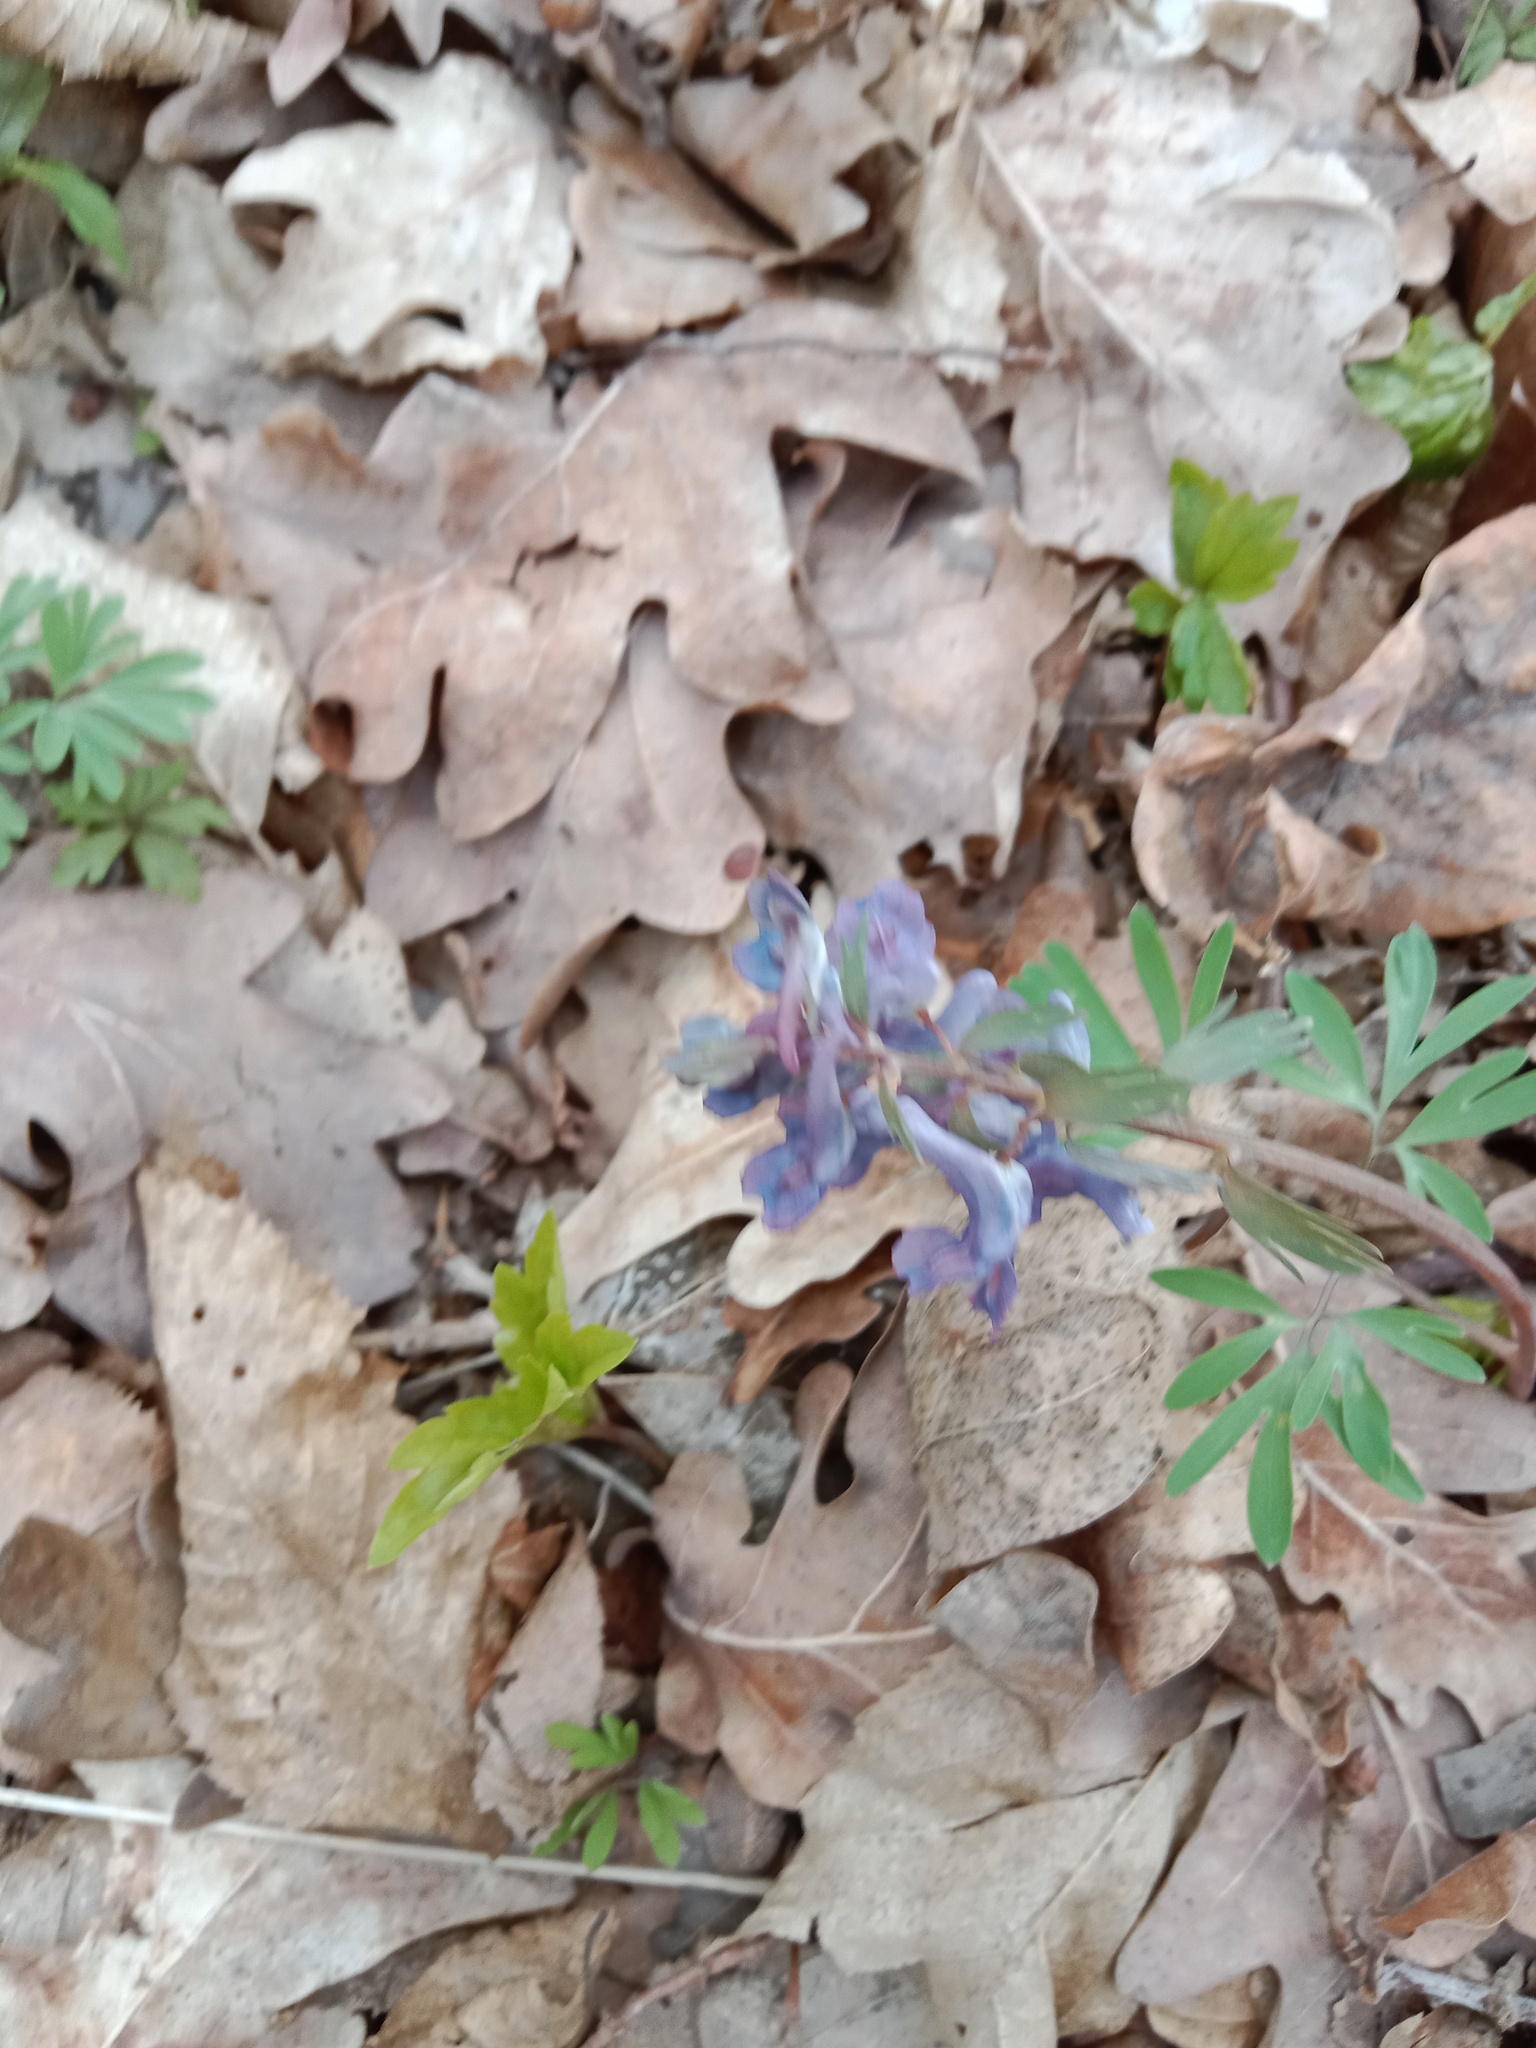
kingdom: Plantae
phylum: Tracheophyta
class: Magnoliopsida
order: Ranunculales
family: Papaveraceae
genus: Corydalis
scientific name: Corydalis solida
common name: Bird-in-a-bush
